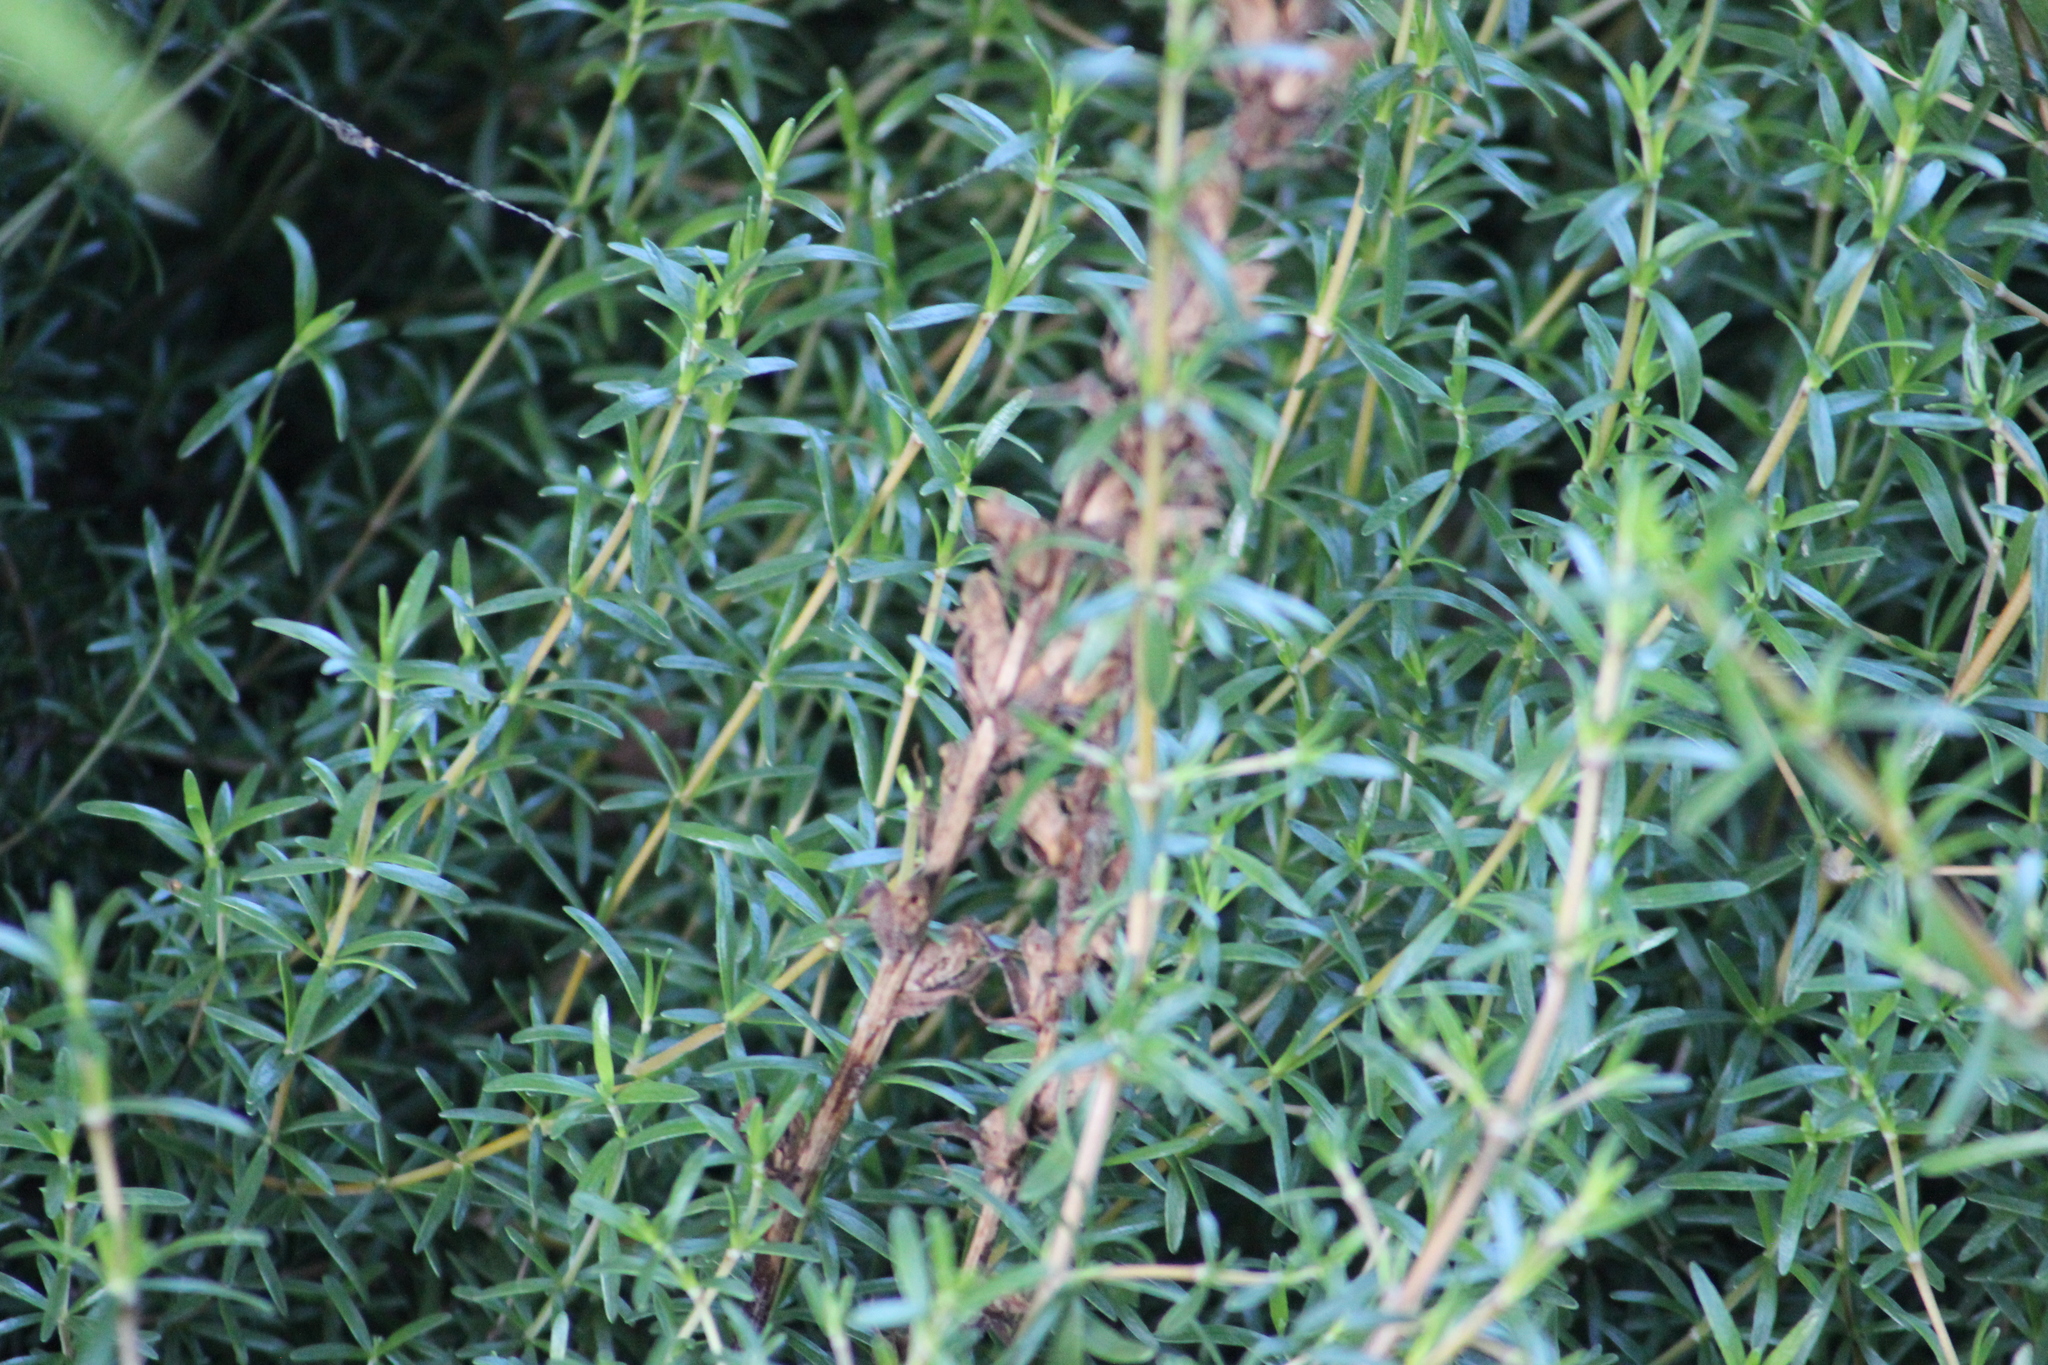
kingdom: Plantae
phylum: Tracheophyta
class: Magnoliopsida
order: Lamiales
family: Orobanchaceae
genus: Orobanche
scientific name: Orobanche minor
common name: Common broomrape
